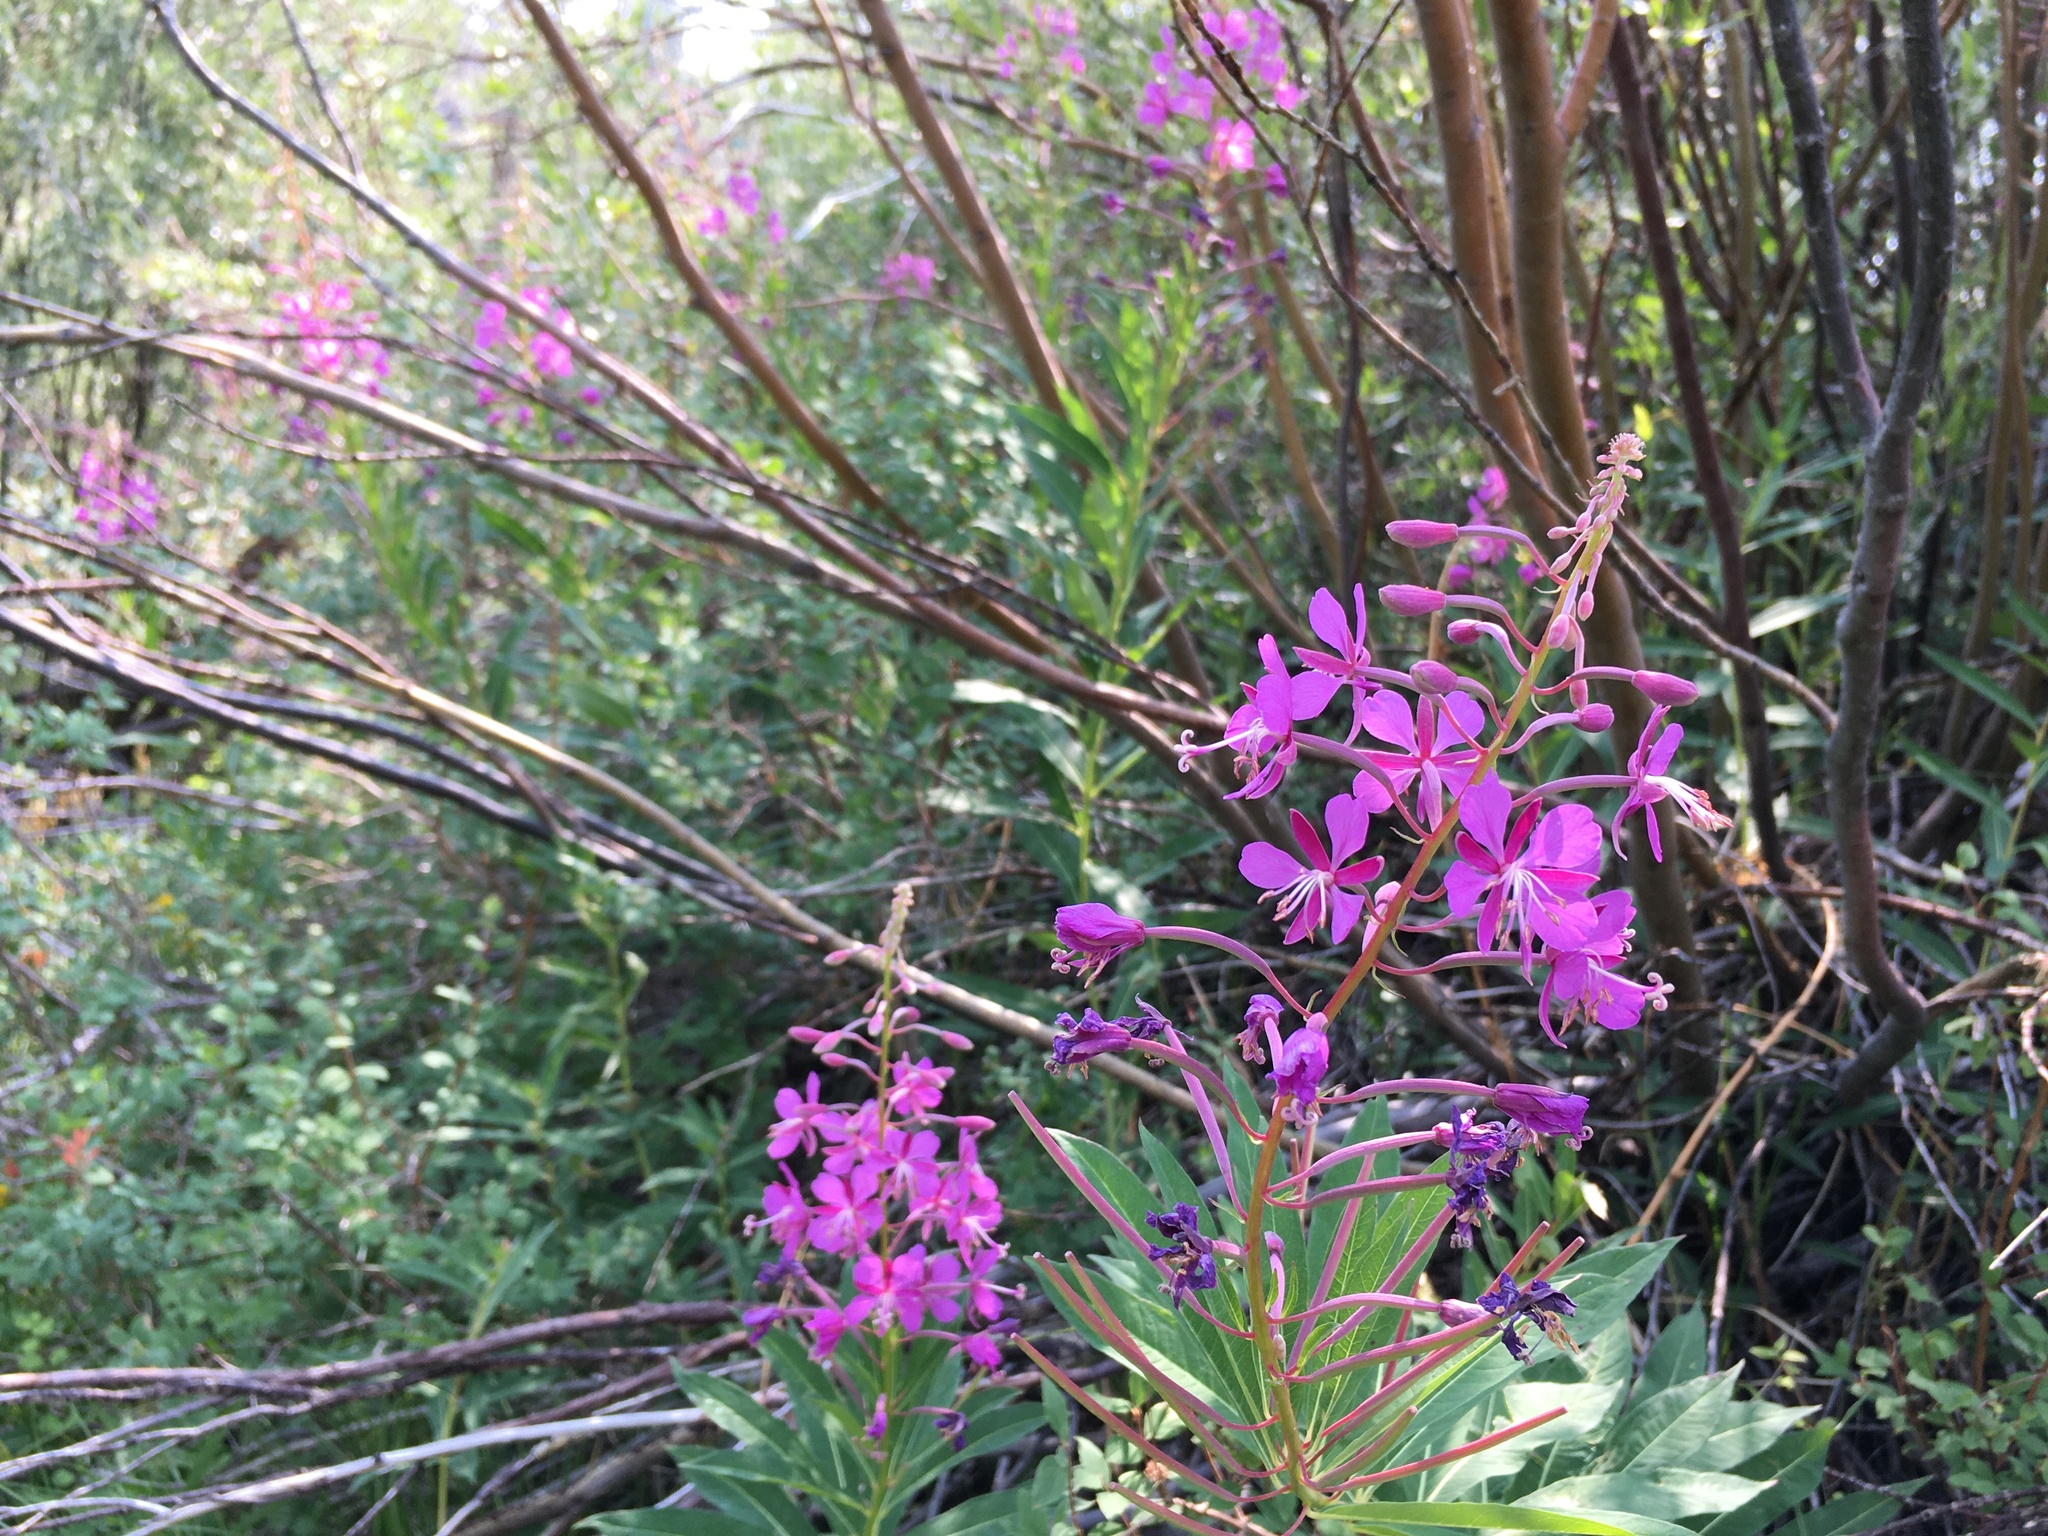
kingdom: Plantae
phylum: Tracheophyta
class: Magnoliopsida
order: Myrtales
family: Onagraceae
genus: Chamaenerion
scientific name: Chamaenerion angustifolium
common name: Fireweed
